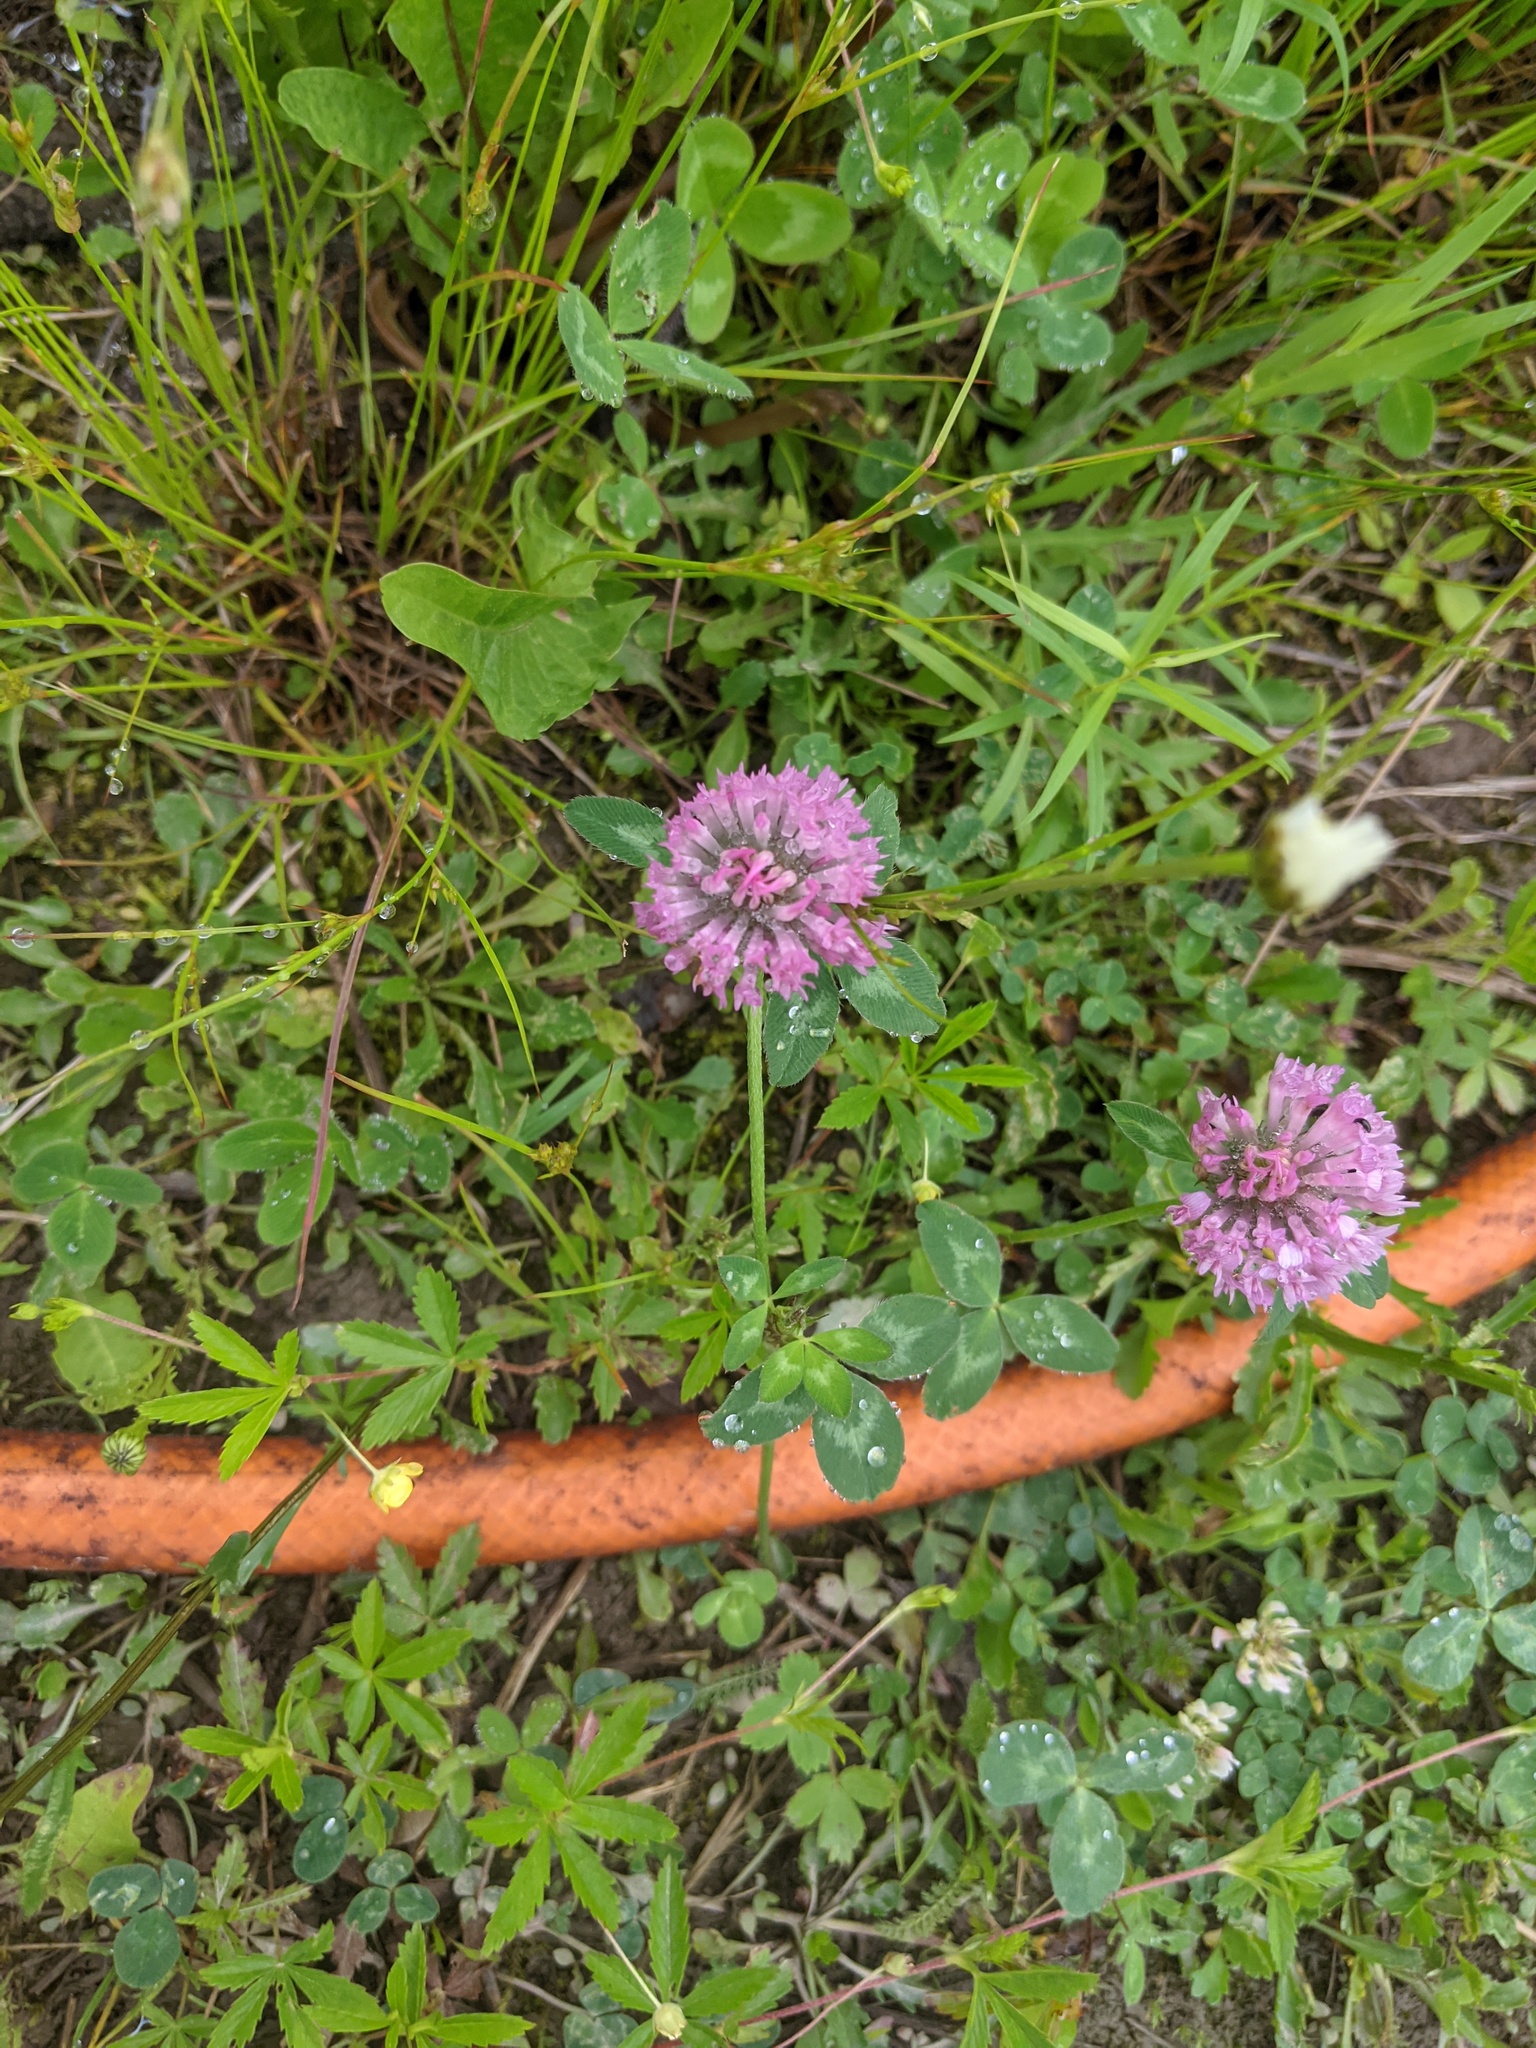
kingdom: Plantae
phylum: Tracheophyta
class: Magnoliopsida
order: Fabales
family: Fabaceae
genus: Trifolium
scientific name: Trifolium pratense
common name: Red clover
